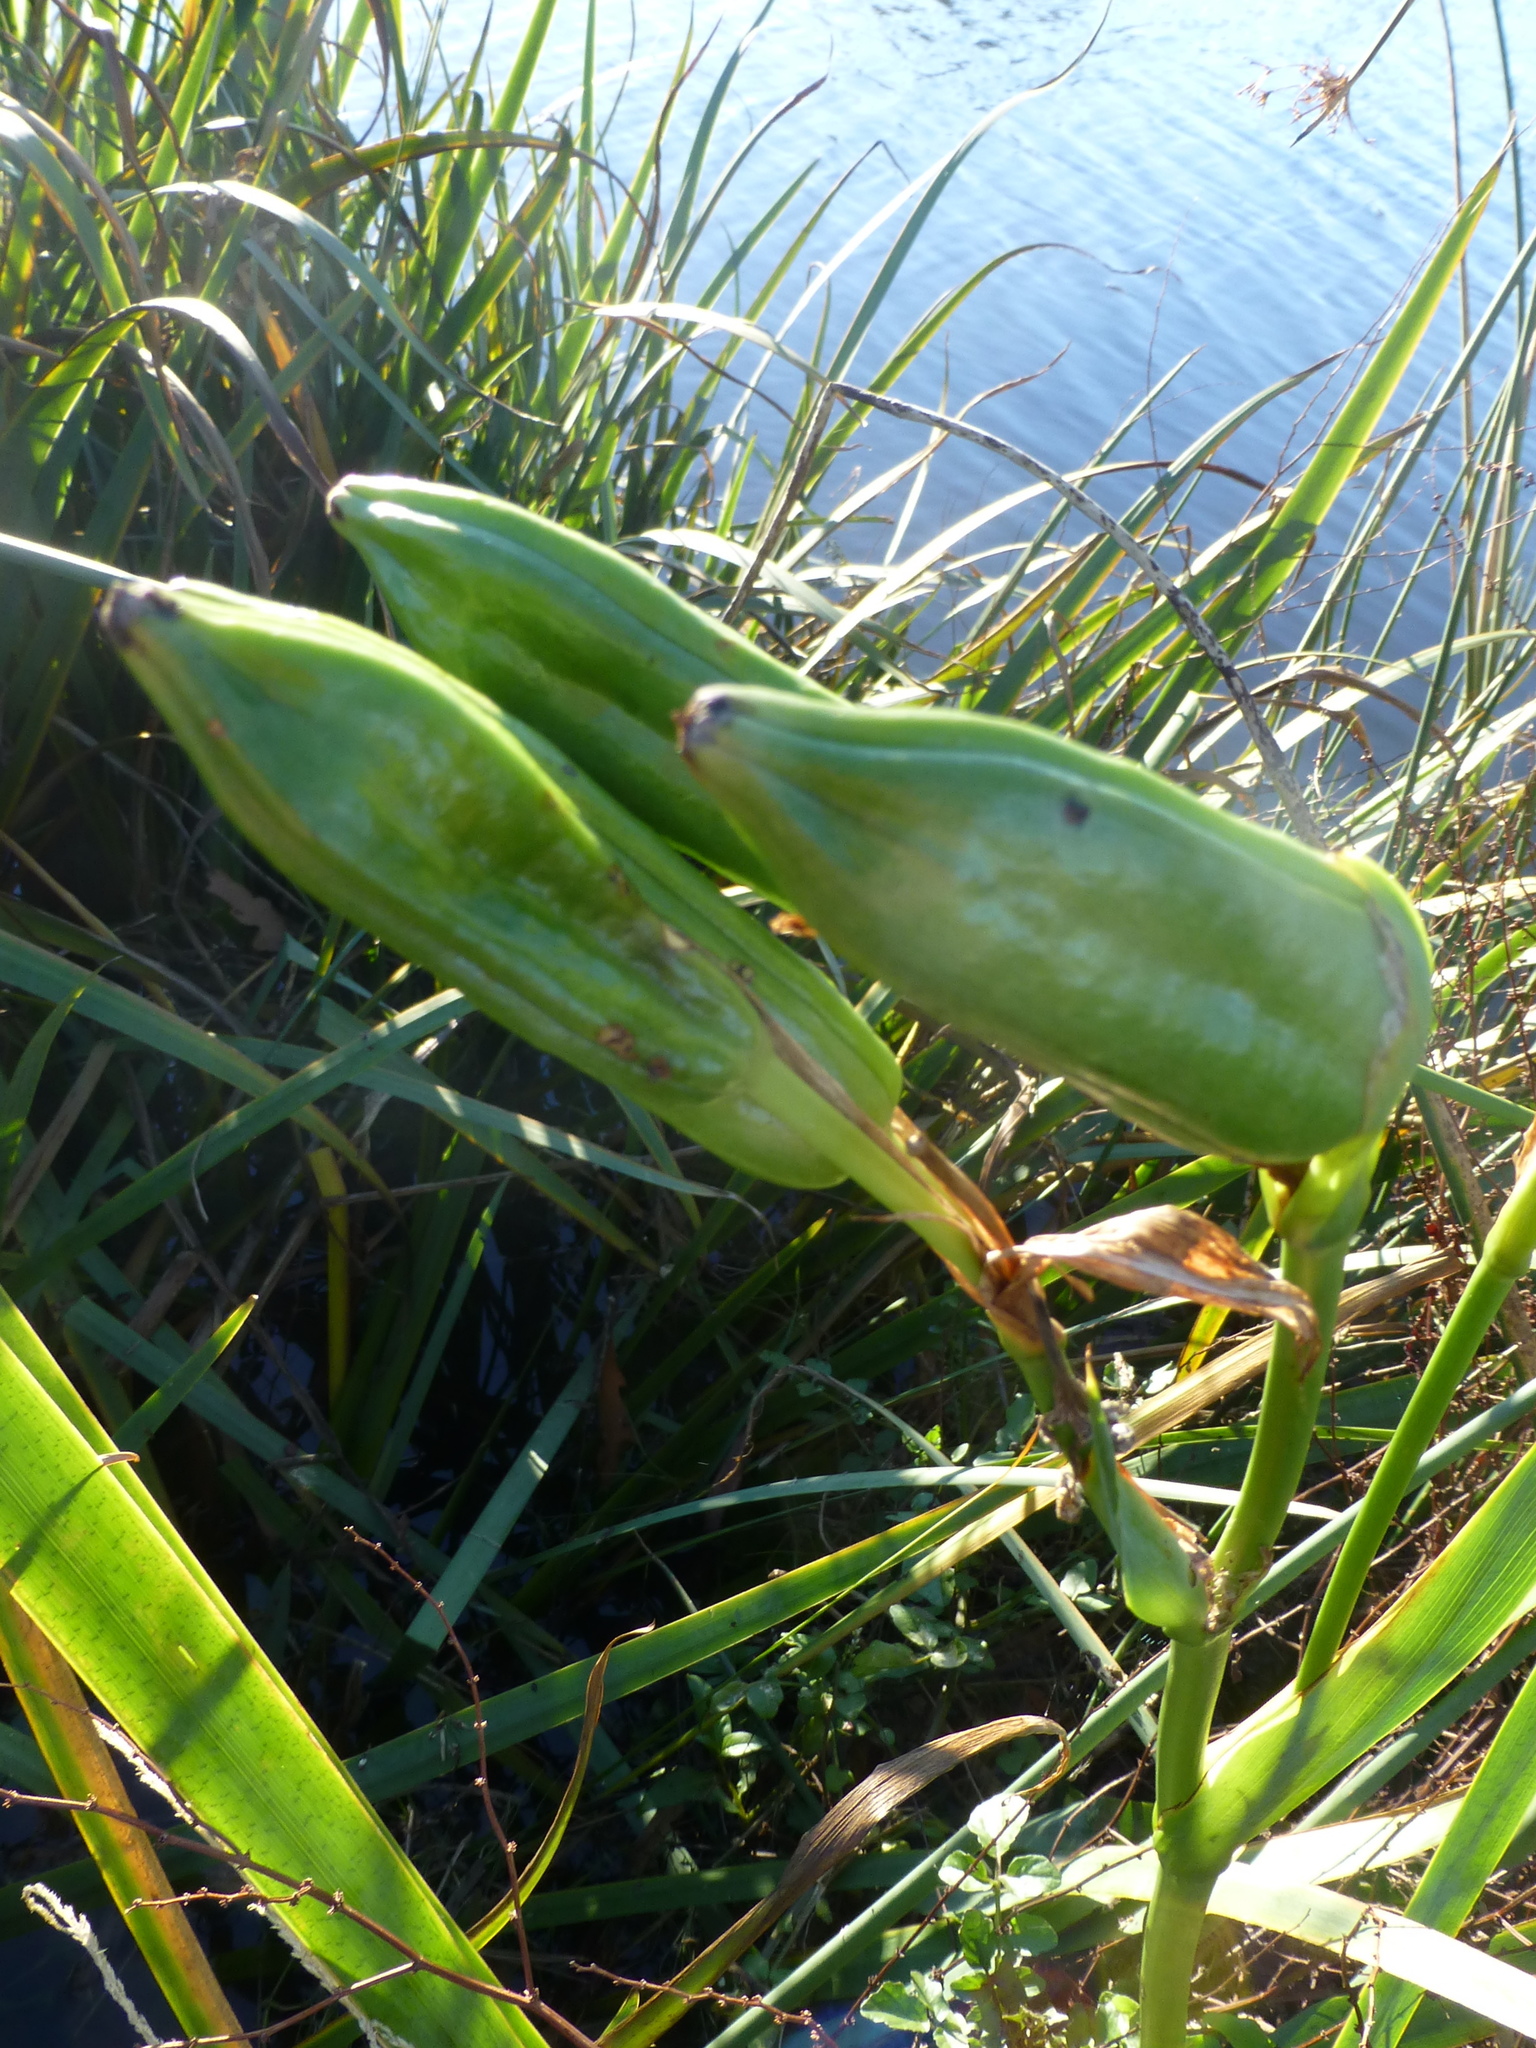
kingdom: Plantae
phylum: Tracheophyta
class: Liliopsida
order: Asparagales
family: Iridaceae
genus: Iris
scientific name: Iris pseudacorus
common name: Yellow flag
